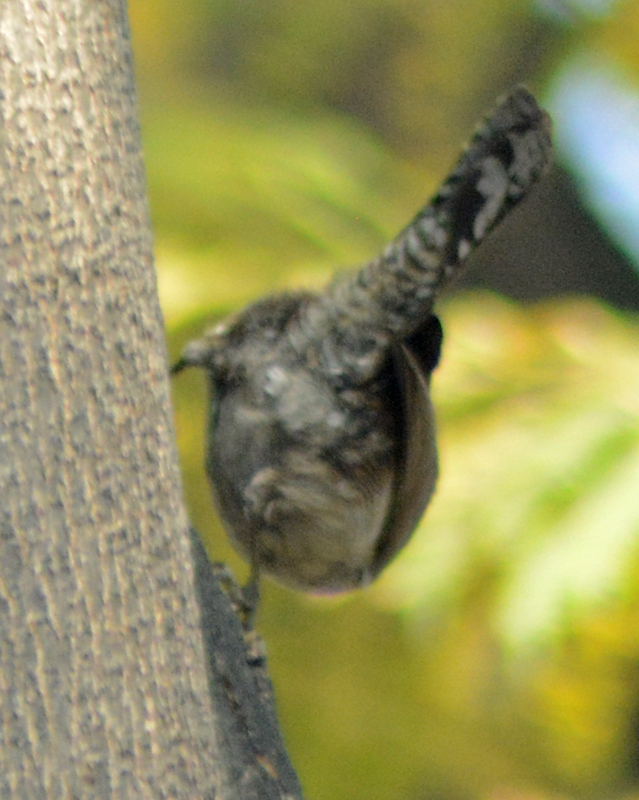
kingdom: Animalia
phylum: Chordata
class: Aves
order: Passeriformes
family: Troglodytidae
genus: Thryomanes
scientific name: Thryomanes bewickii
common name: Bewick's wren
